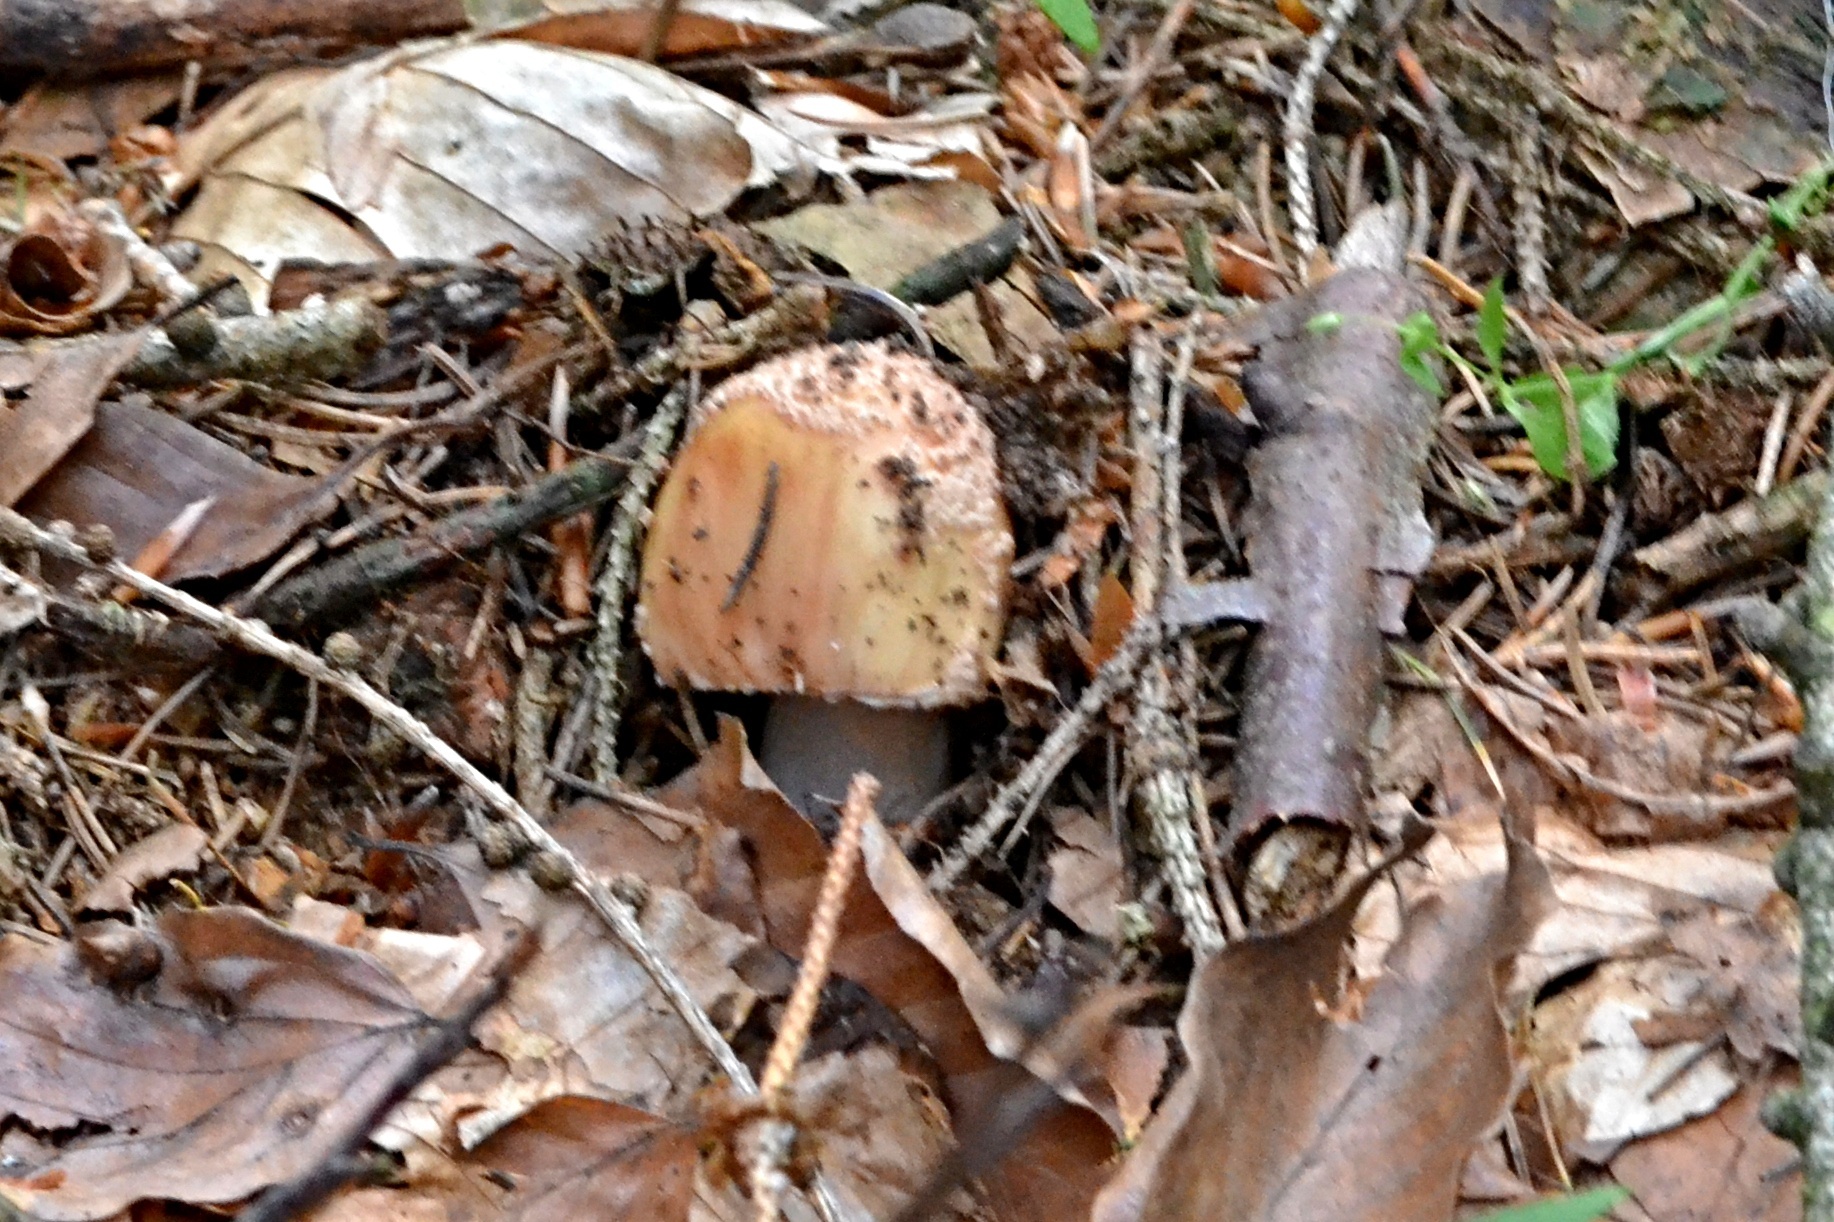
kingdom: Fungi
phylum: Basidiomycota
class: Agaricomycetes
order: Agaricales
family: Amanitaceae
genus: Amanita
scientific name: Amanita rubescens
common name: Blusher
